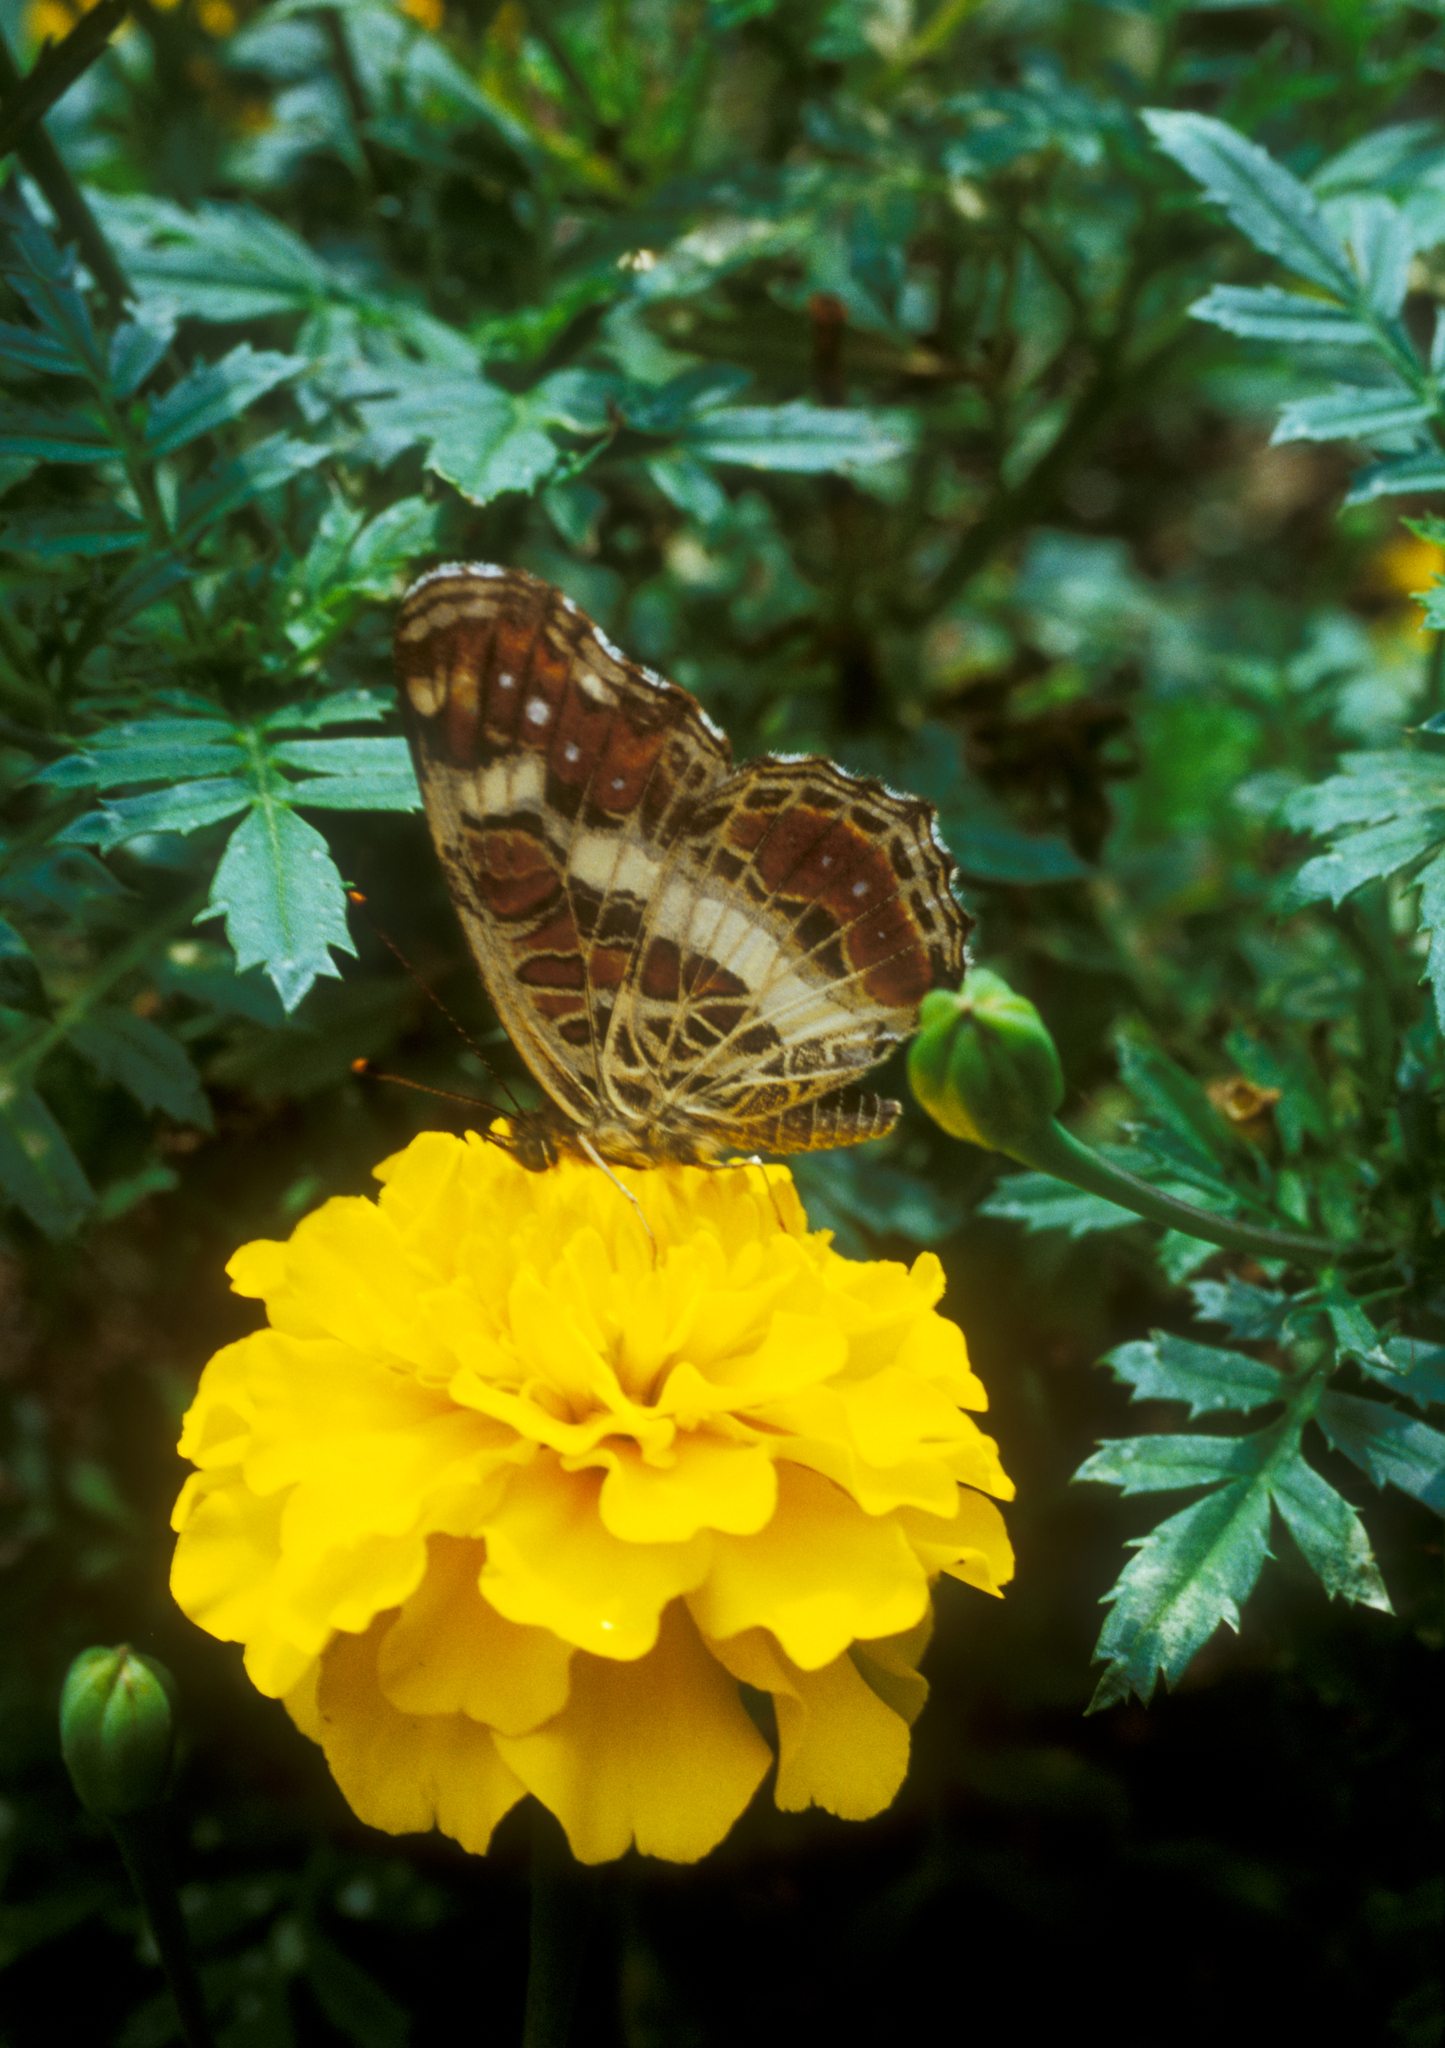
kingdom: Animalia
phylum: Arthropoda
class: Insecta
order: Lepidoptera
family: Nymphalidae
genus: Araschnia
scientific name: Araschnia burejana
